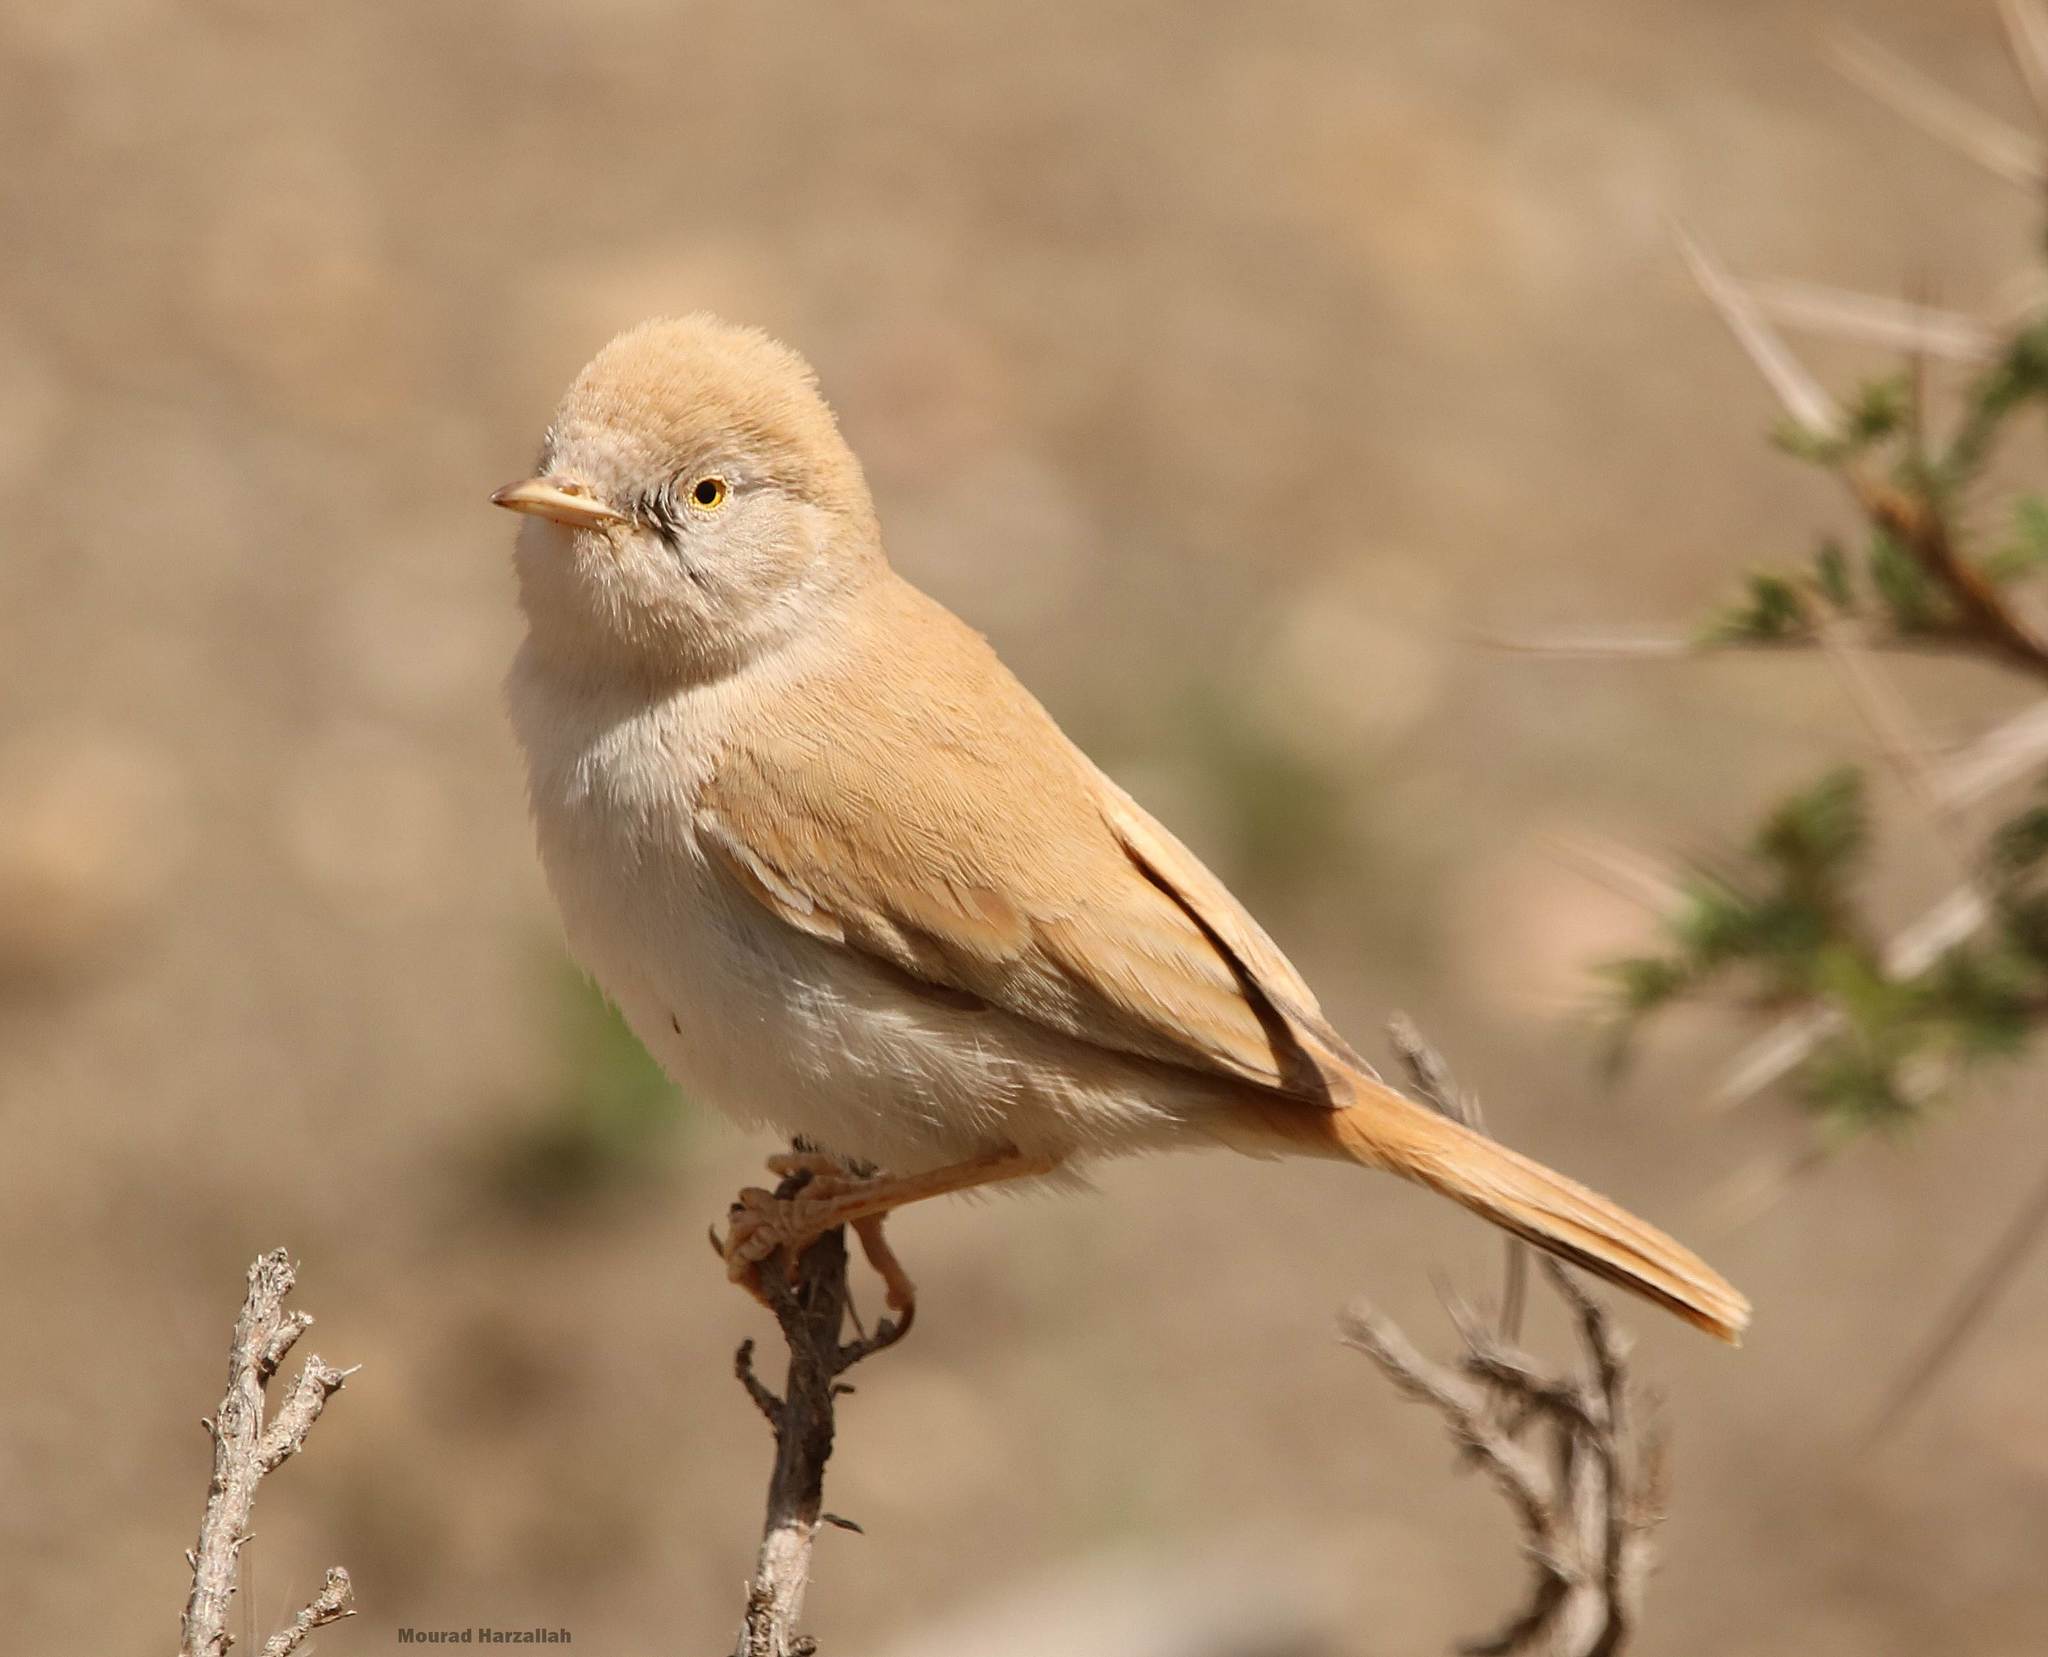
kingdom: Animalia
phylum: Chordata
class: Aves
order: Passeriformes
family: Sylviidae
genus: Sylvia
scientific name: Sylvia deserti
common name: African desert warbler
